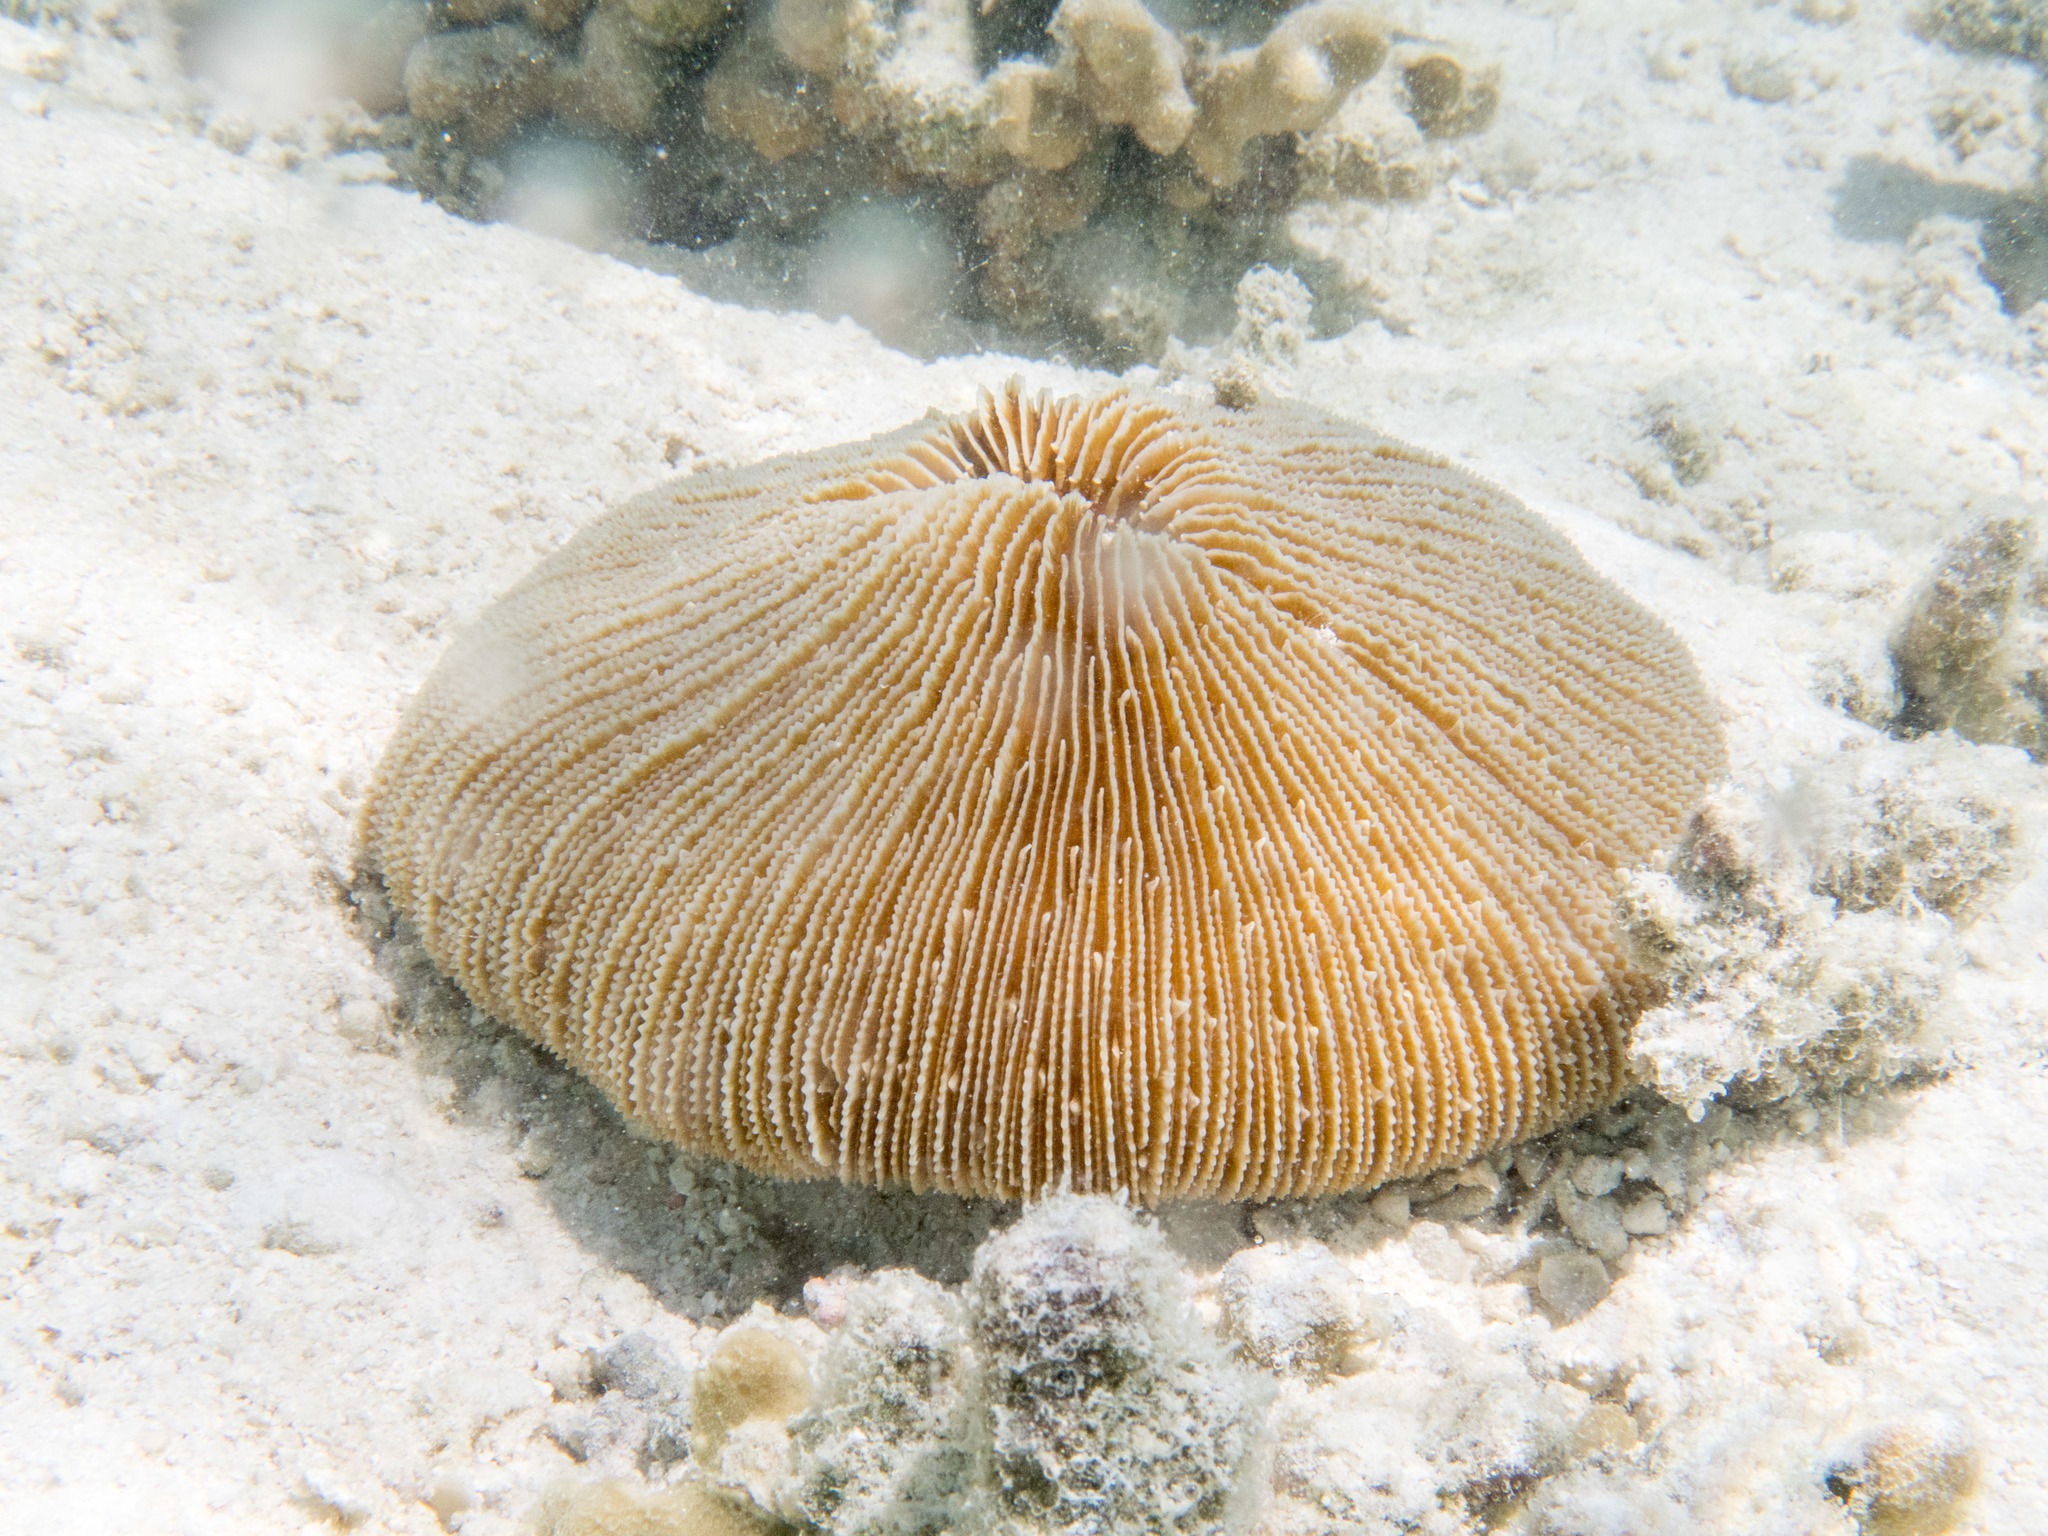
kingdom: Animalia
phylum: Cnidaria
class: Anthozoa
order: Scleractinia
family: Fungiidae
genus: Fungia
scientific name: Fungia fungites
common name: Mushroom coral
